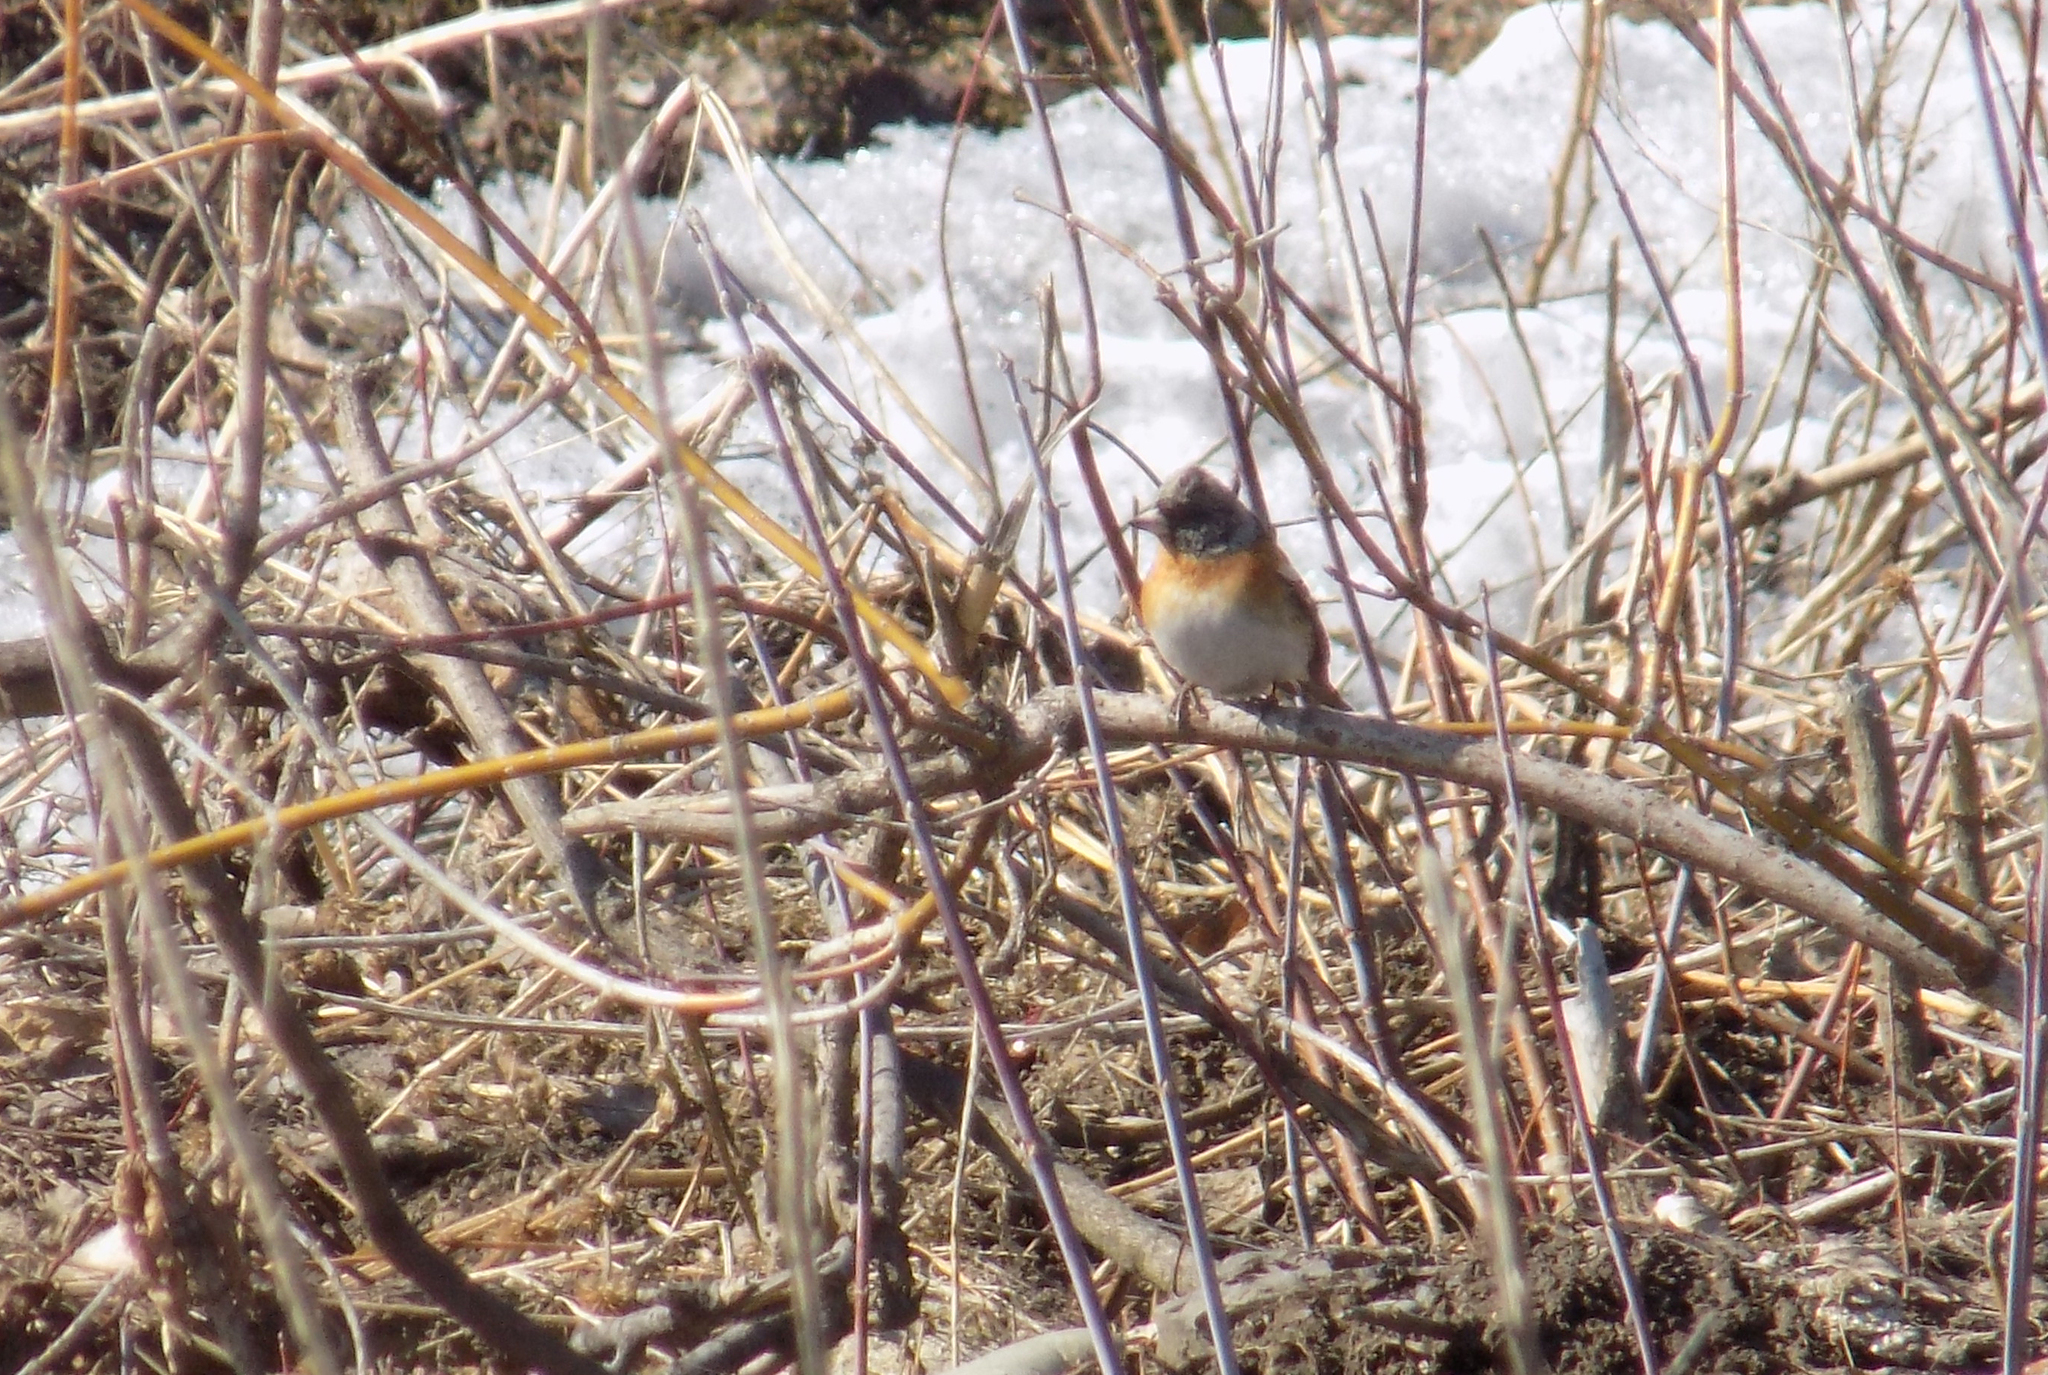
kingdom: Animalia
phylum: Chordata
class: Aves
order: Passeriformes
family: Fringillidae
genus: Fringilla
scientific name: Fringilla montifringilla
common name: Brambling
